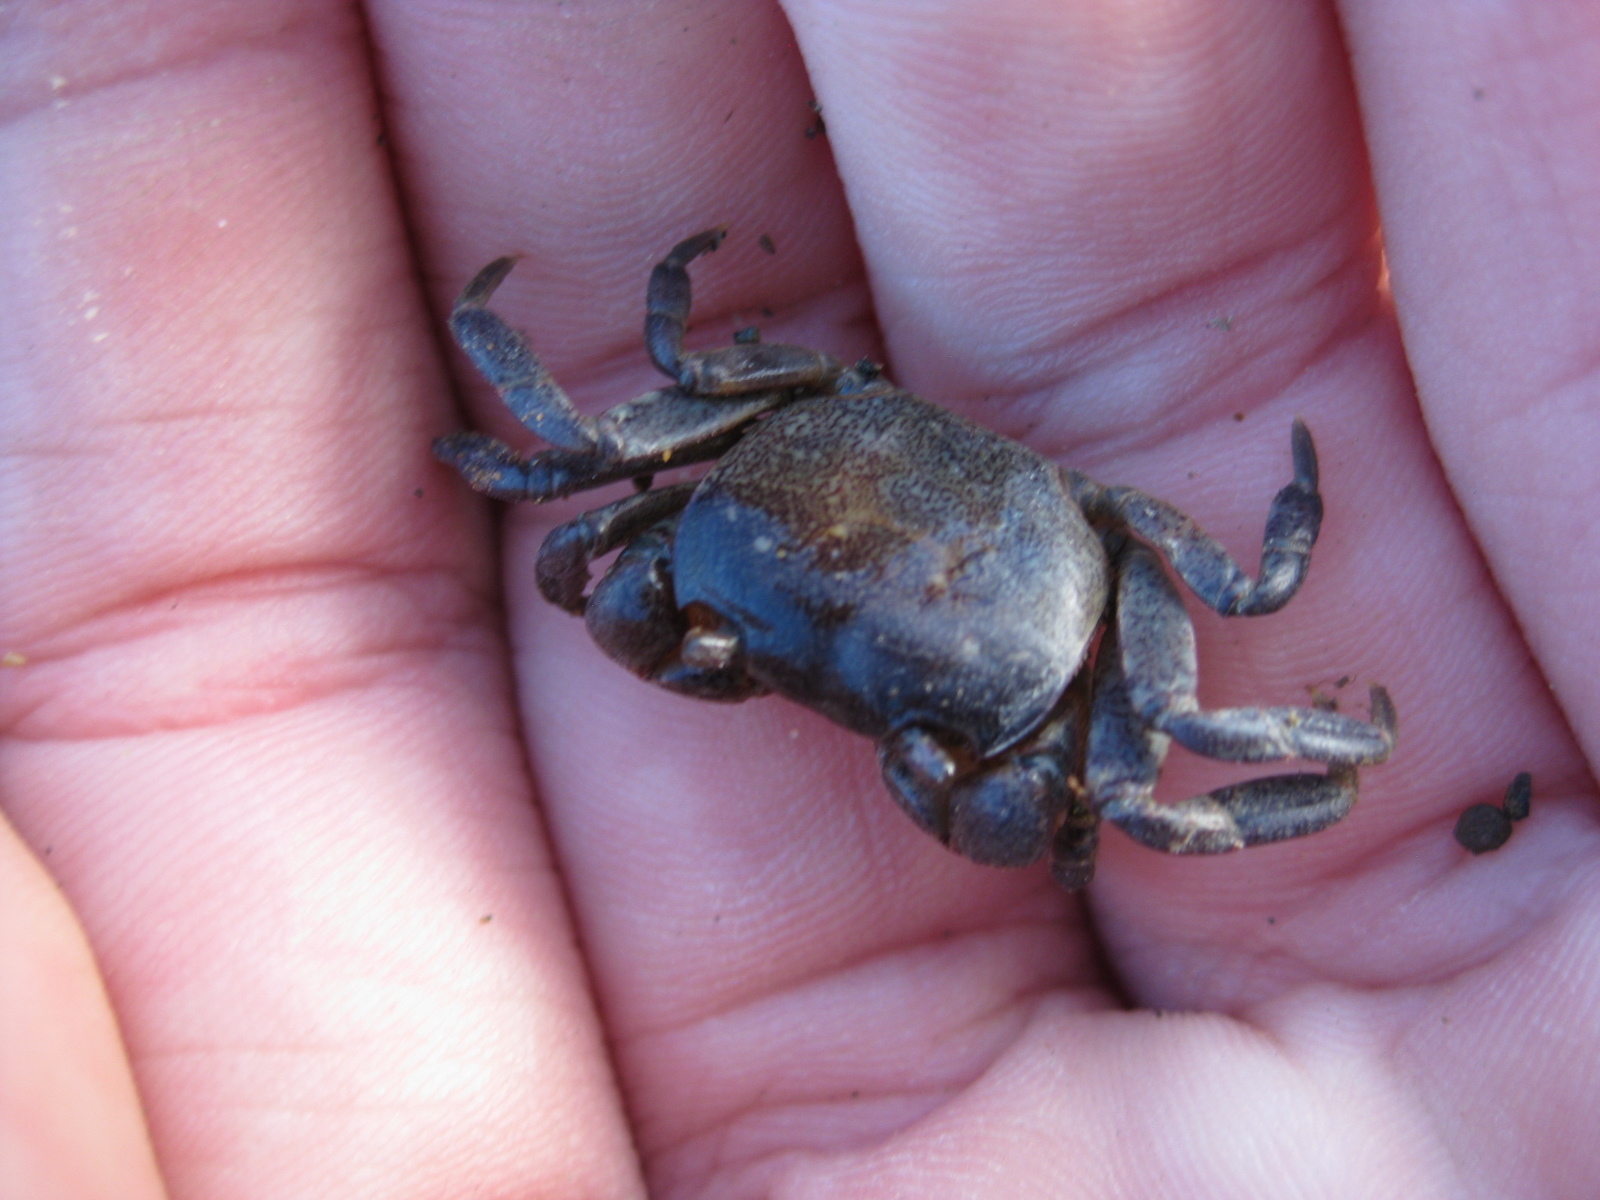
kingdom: Animalia
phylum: Arthropoda
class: Malacostraca
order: Decapoda
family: Varunidae
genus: Cyclograpsus
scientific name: Cyclograpsus lavauxi
